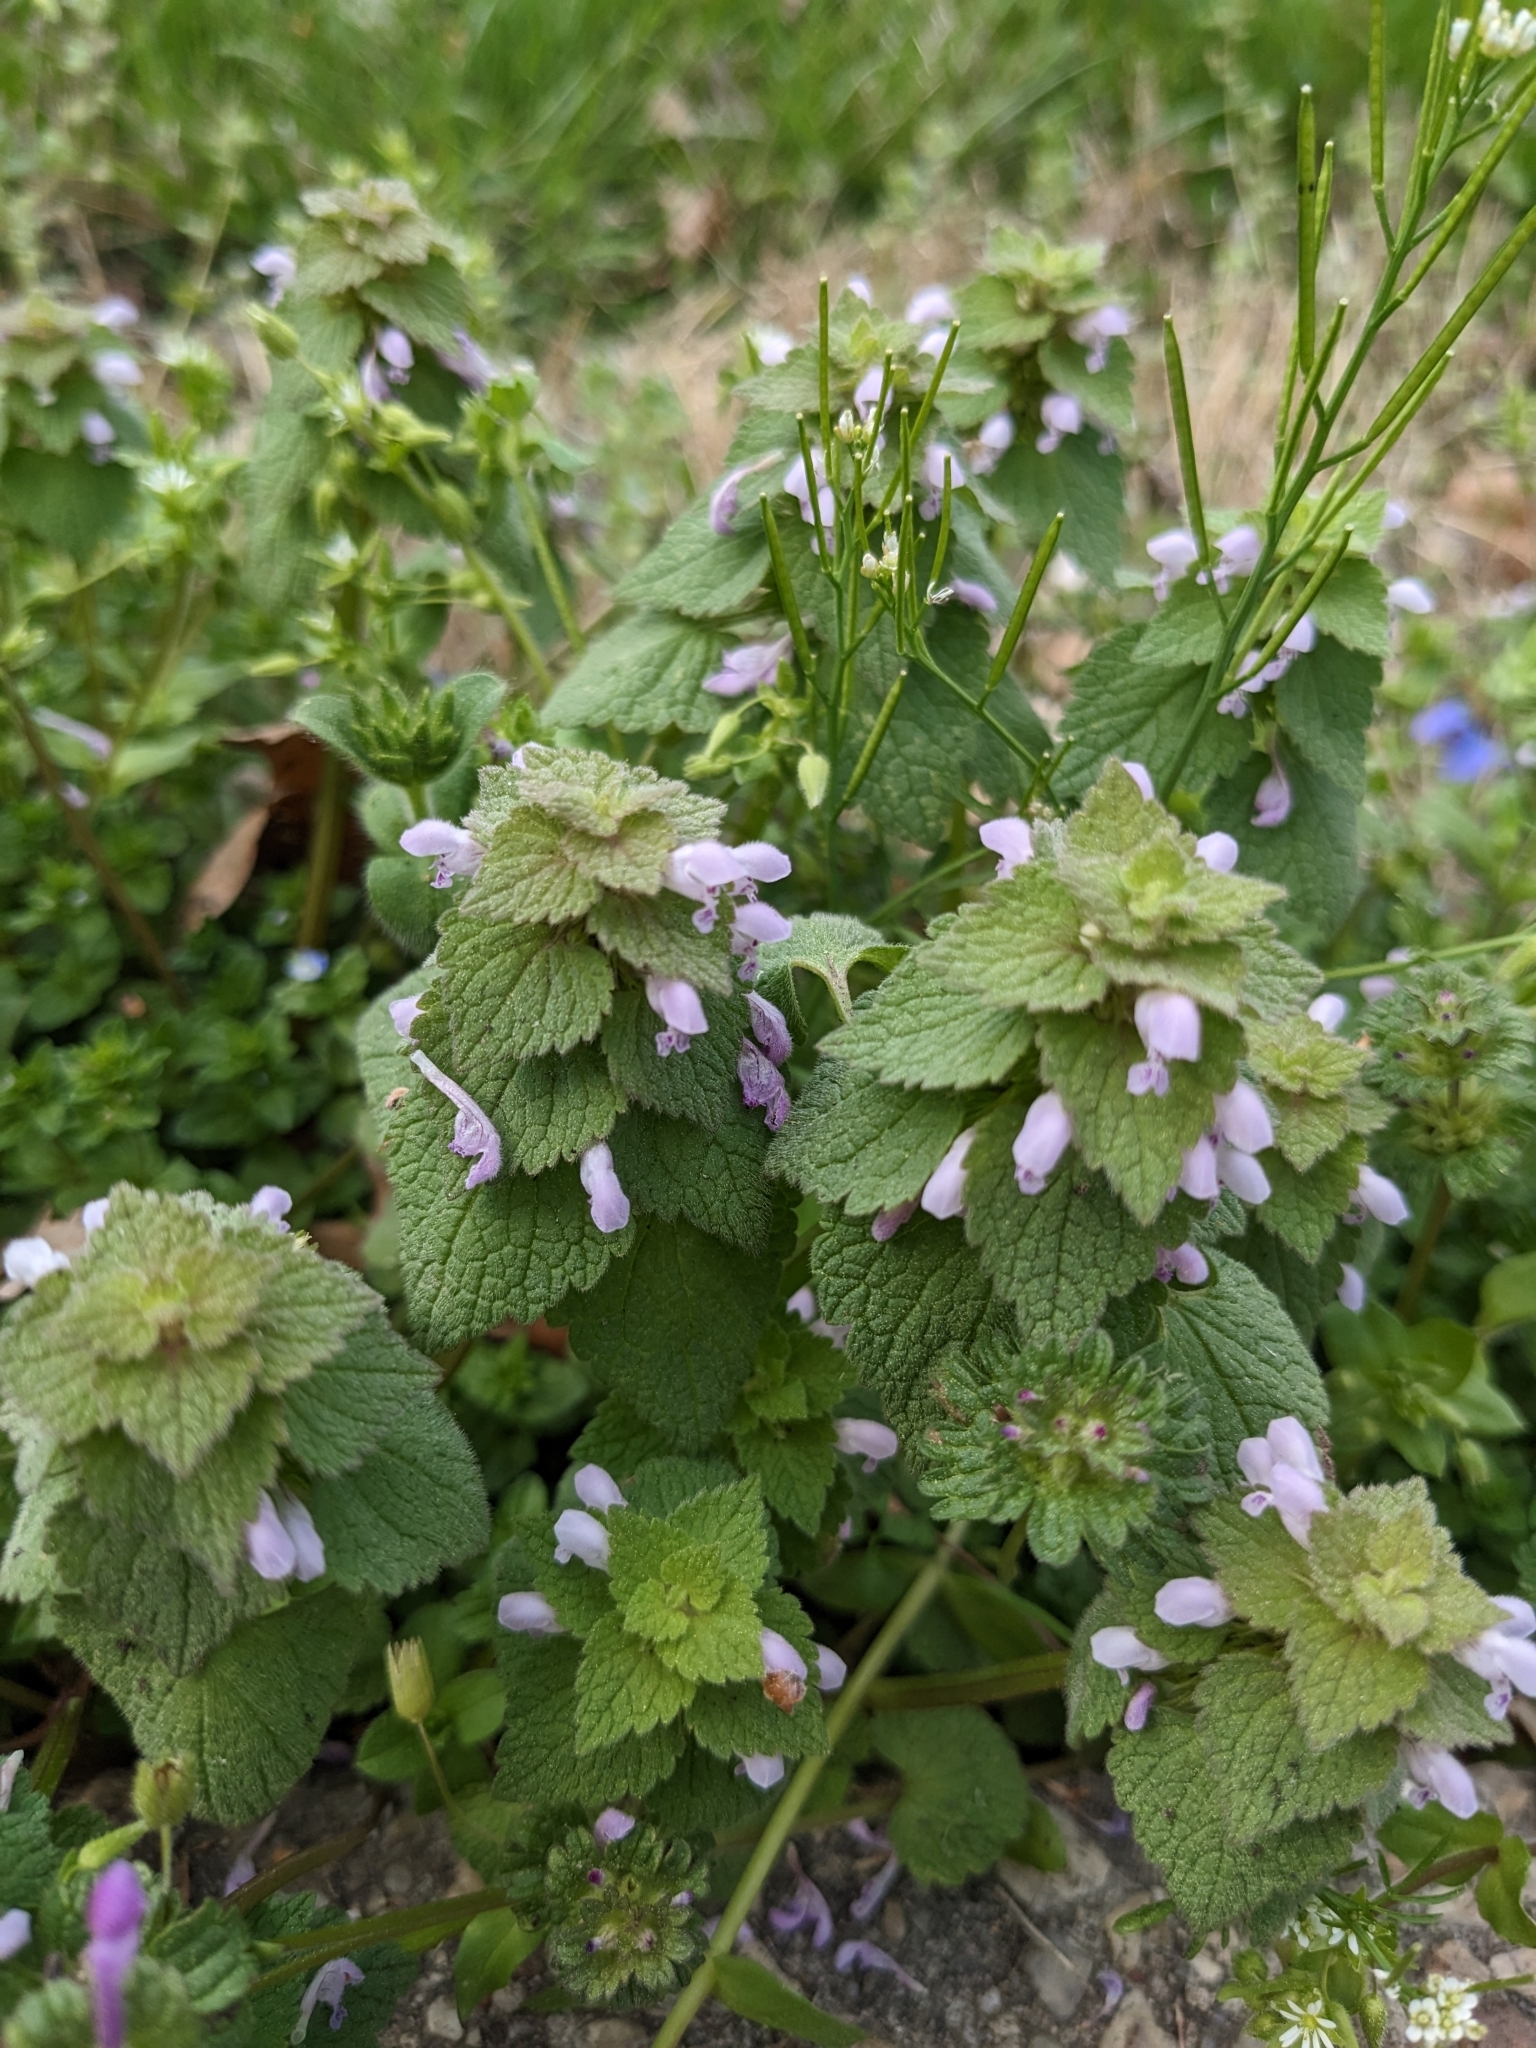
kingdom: Plantae
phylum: Tracheophyta
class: Magnoliopsida
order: Lamiales
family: Lamiaceae
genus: Lamium
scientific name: Lamium purpureum
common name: Red dead-nettle
